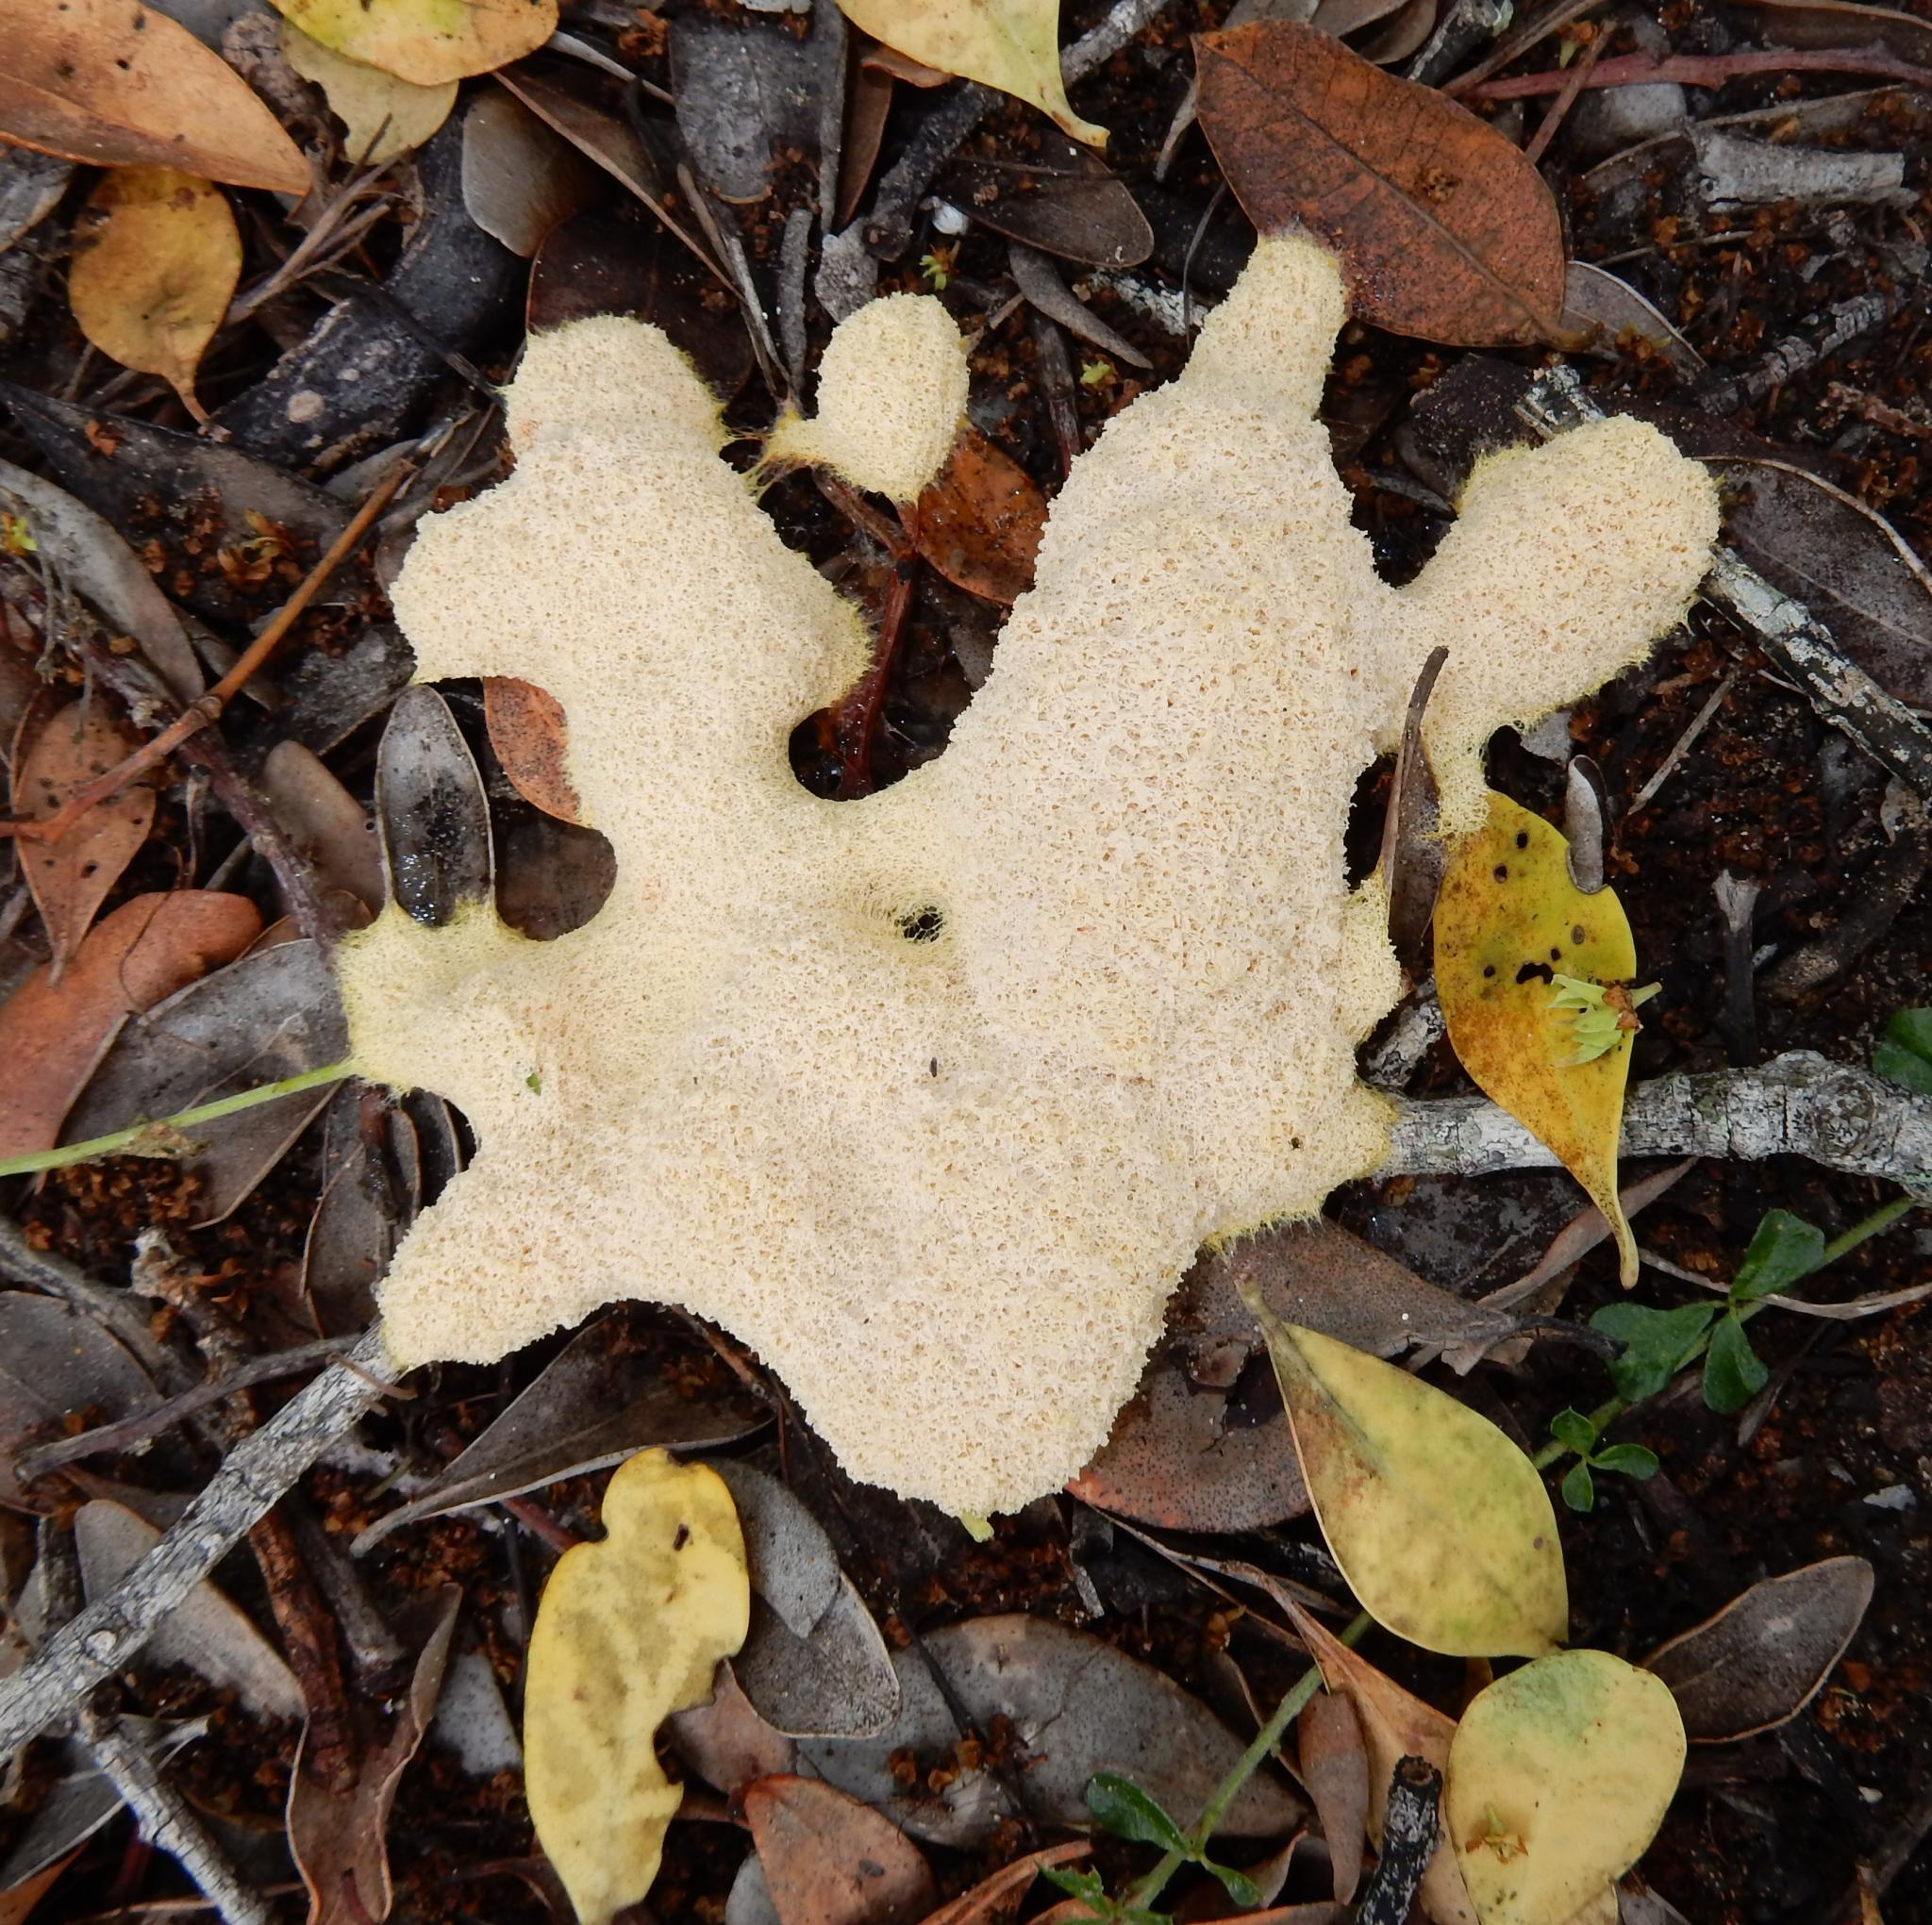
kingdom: Protozoa
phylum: Mycetozoa
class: Myxomycetes
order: Physarales
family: Physaraceae
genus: Fuligo
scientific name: Fuligo septica
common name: Dog vomit slime mold
